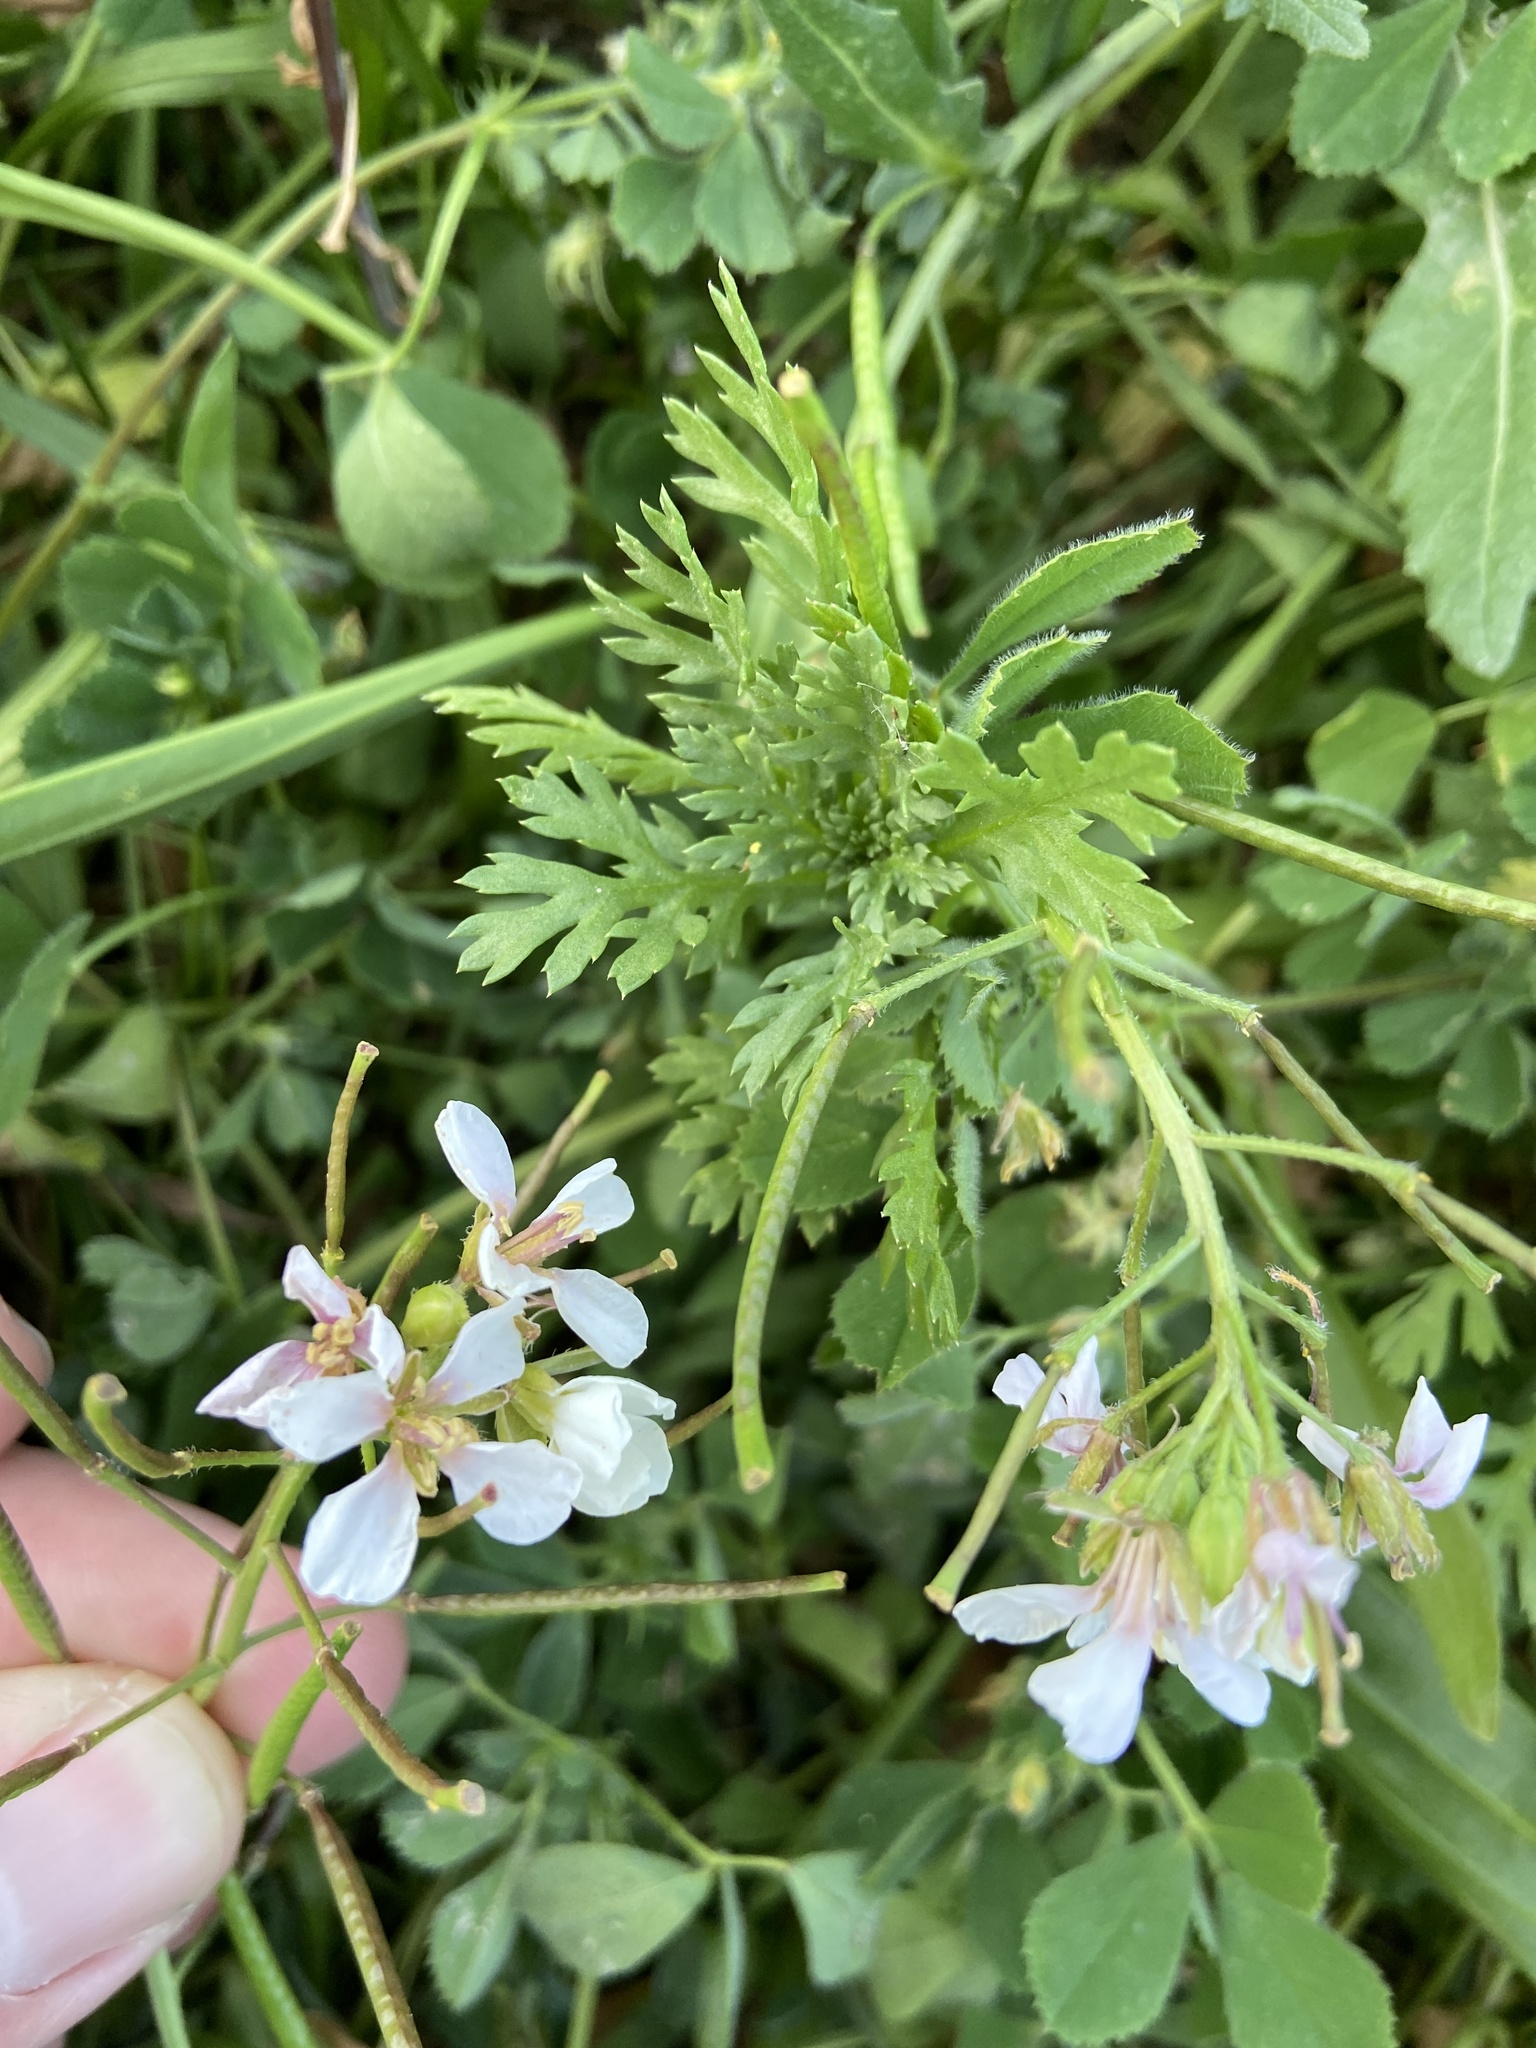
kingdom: Plantae
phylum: Tracheophyta
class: Magnoliopsida
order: Brassicales
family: Brassicaceae
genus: Diplotaxis
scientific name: Diplotaxis erucoides
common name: White rocket
